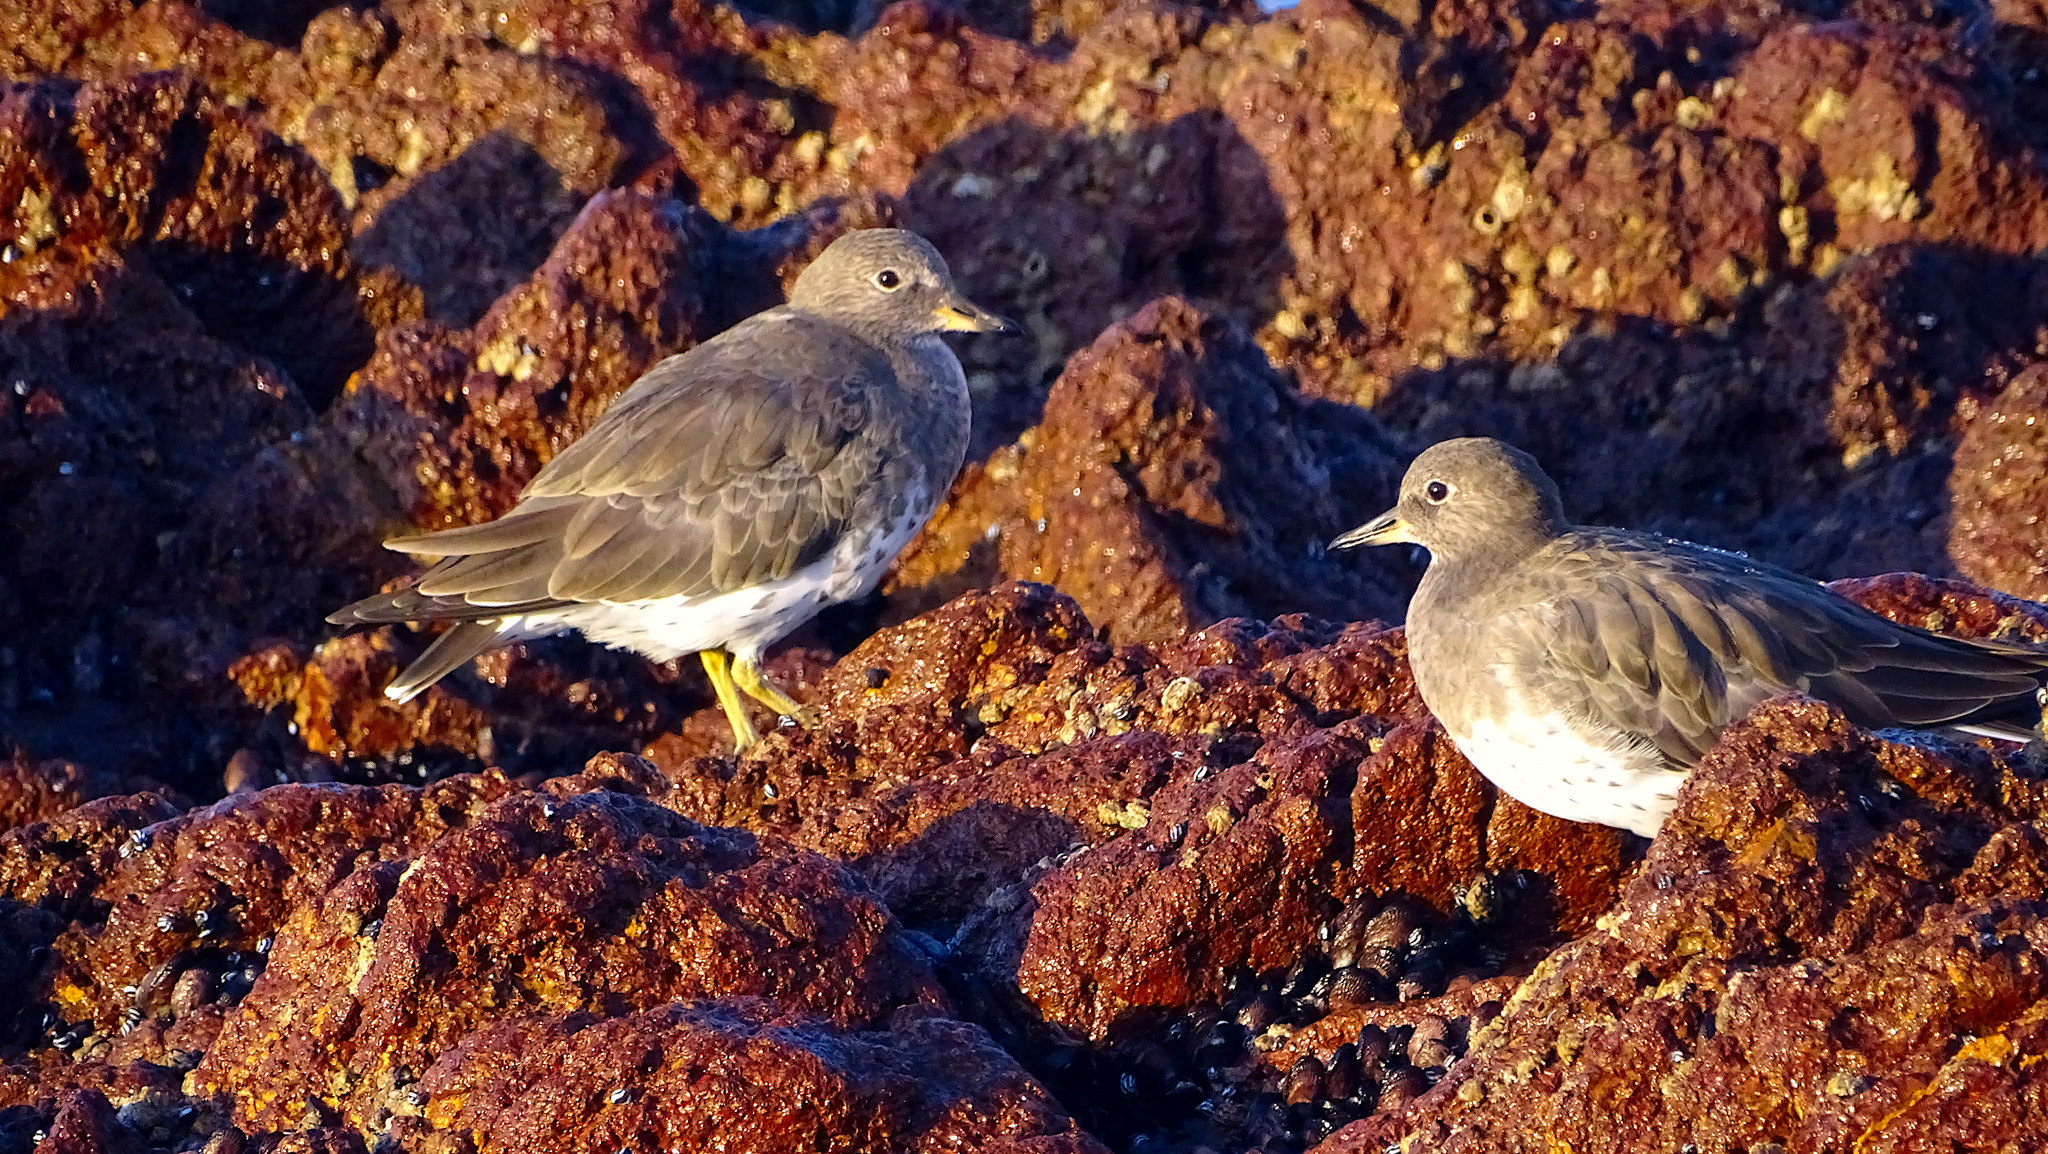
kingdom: Animalia
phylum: Chordata
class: Aves
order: Charadriiformes
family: Scolopacidae
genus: Calidris
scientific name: Calidris virgata
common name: Surfbird
